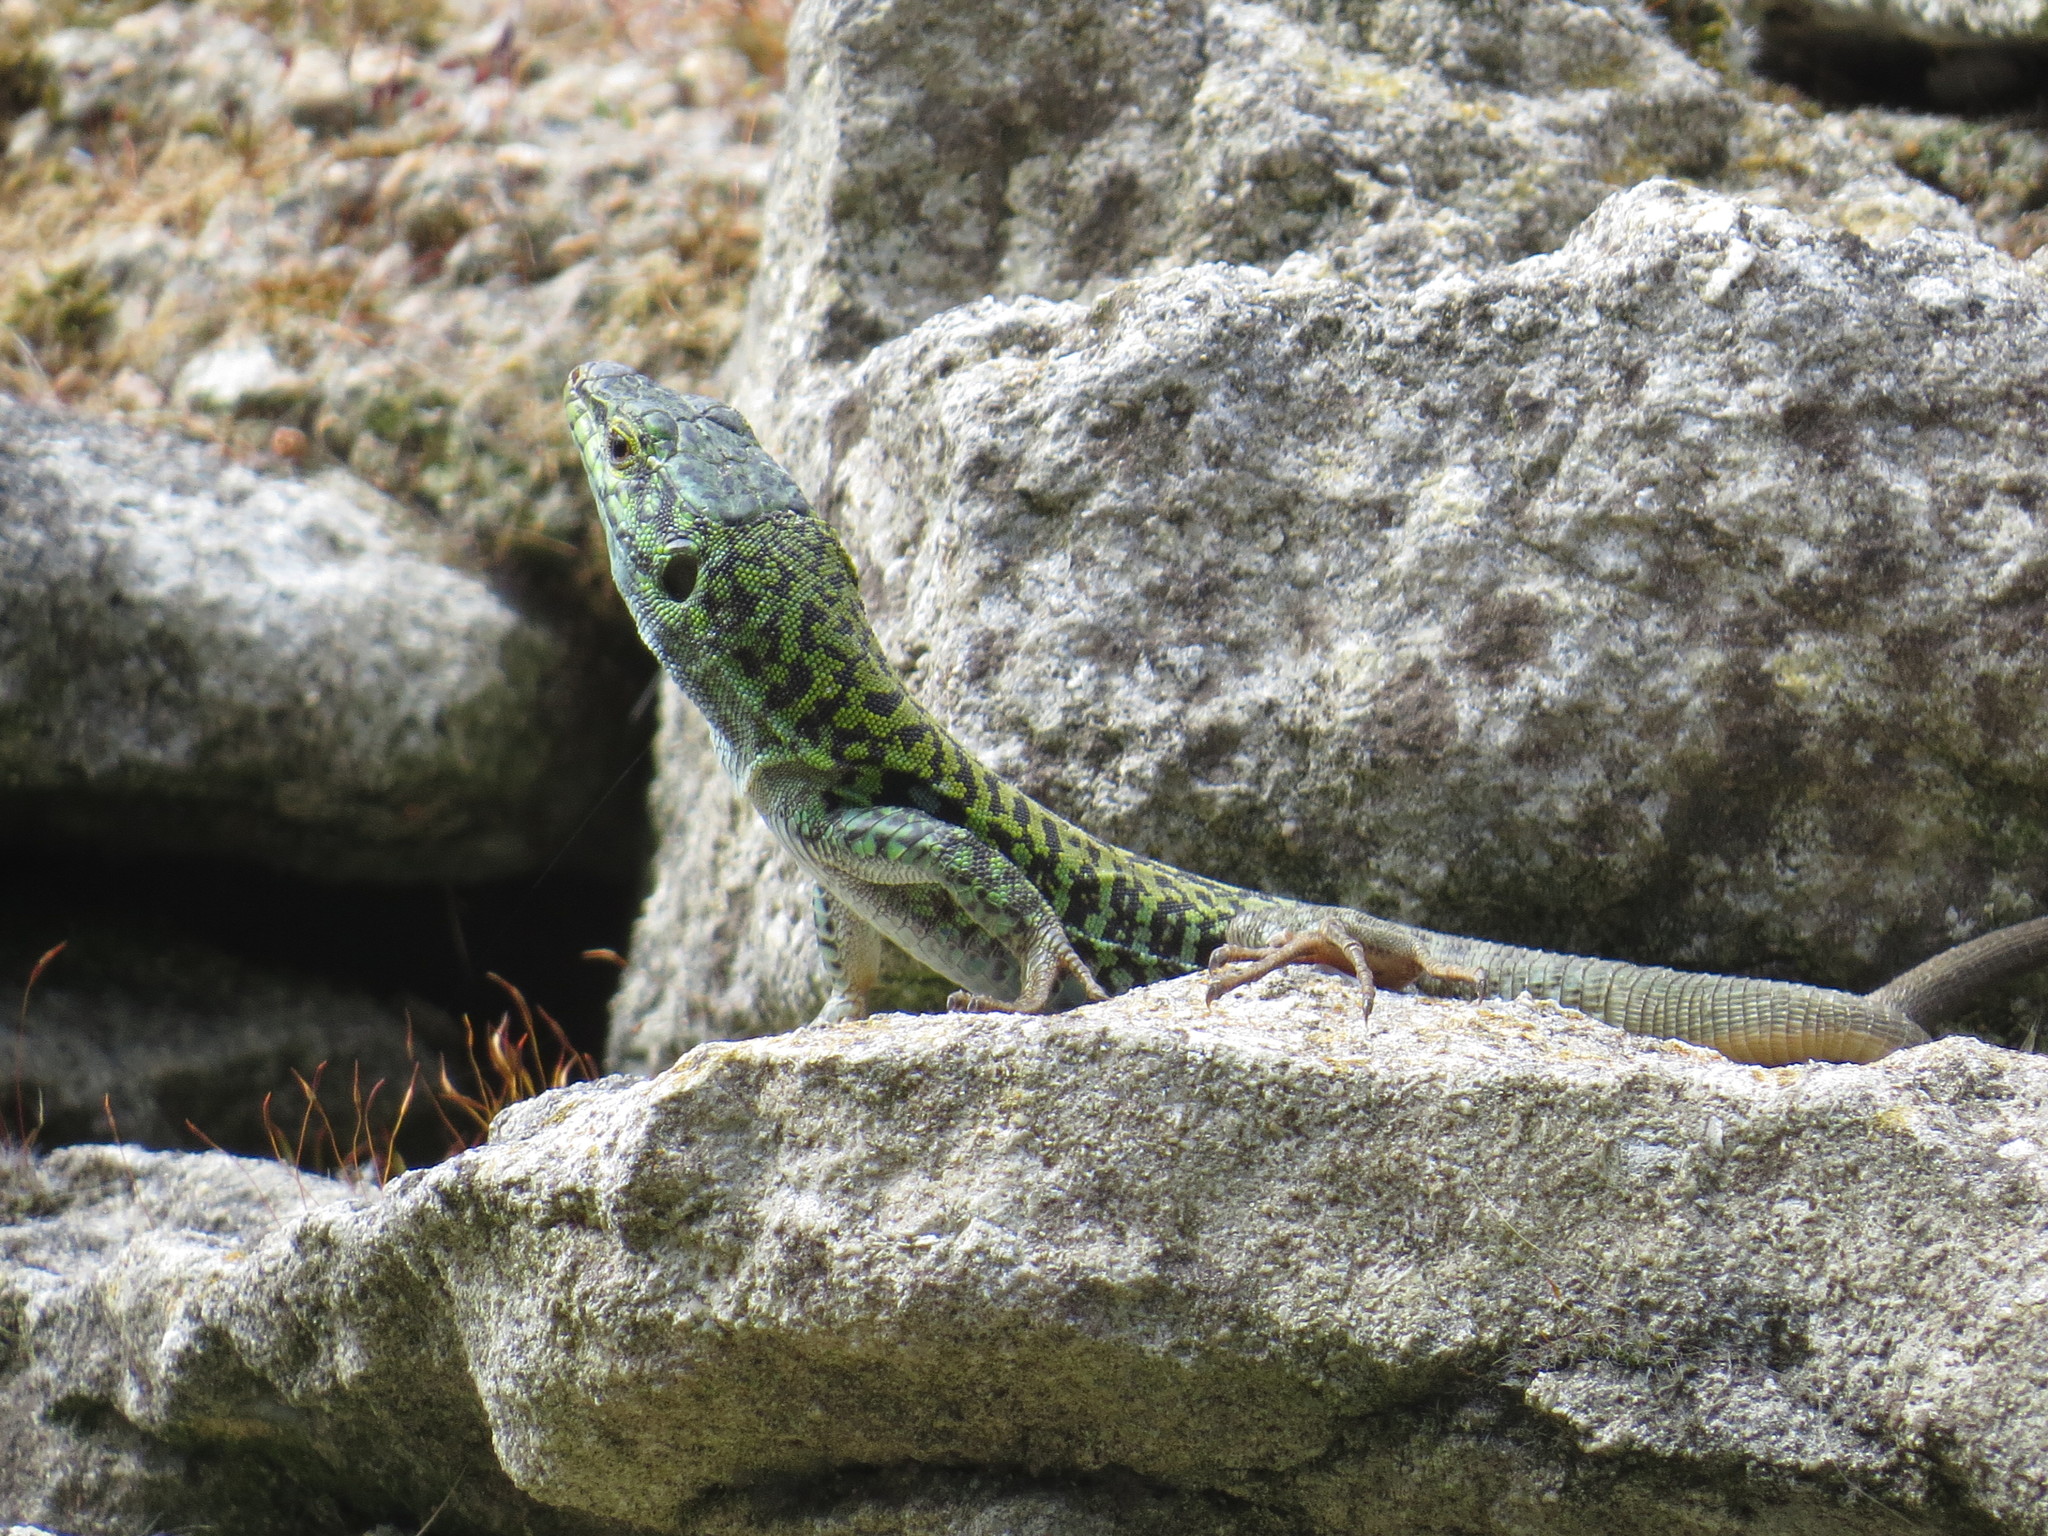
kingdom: Animalia
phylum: Chordata
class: Squamata
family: Lacertidae
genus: Podarcis
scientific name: Podarcis siculus
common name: Italian wall lizard
